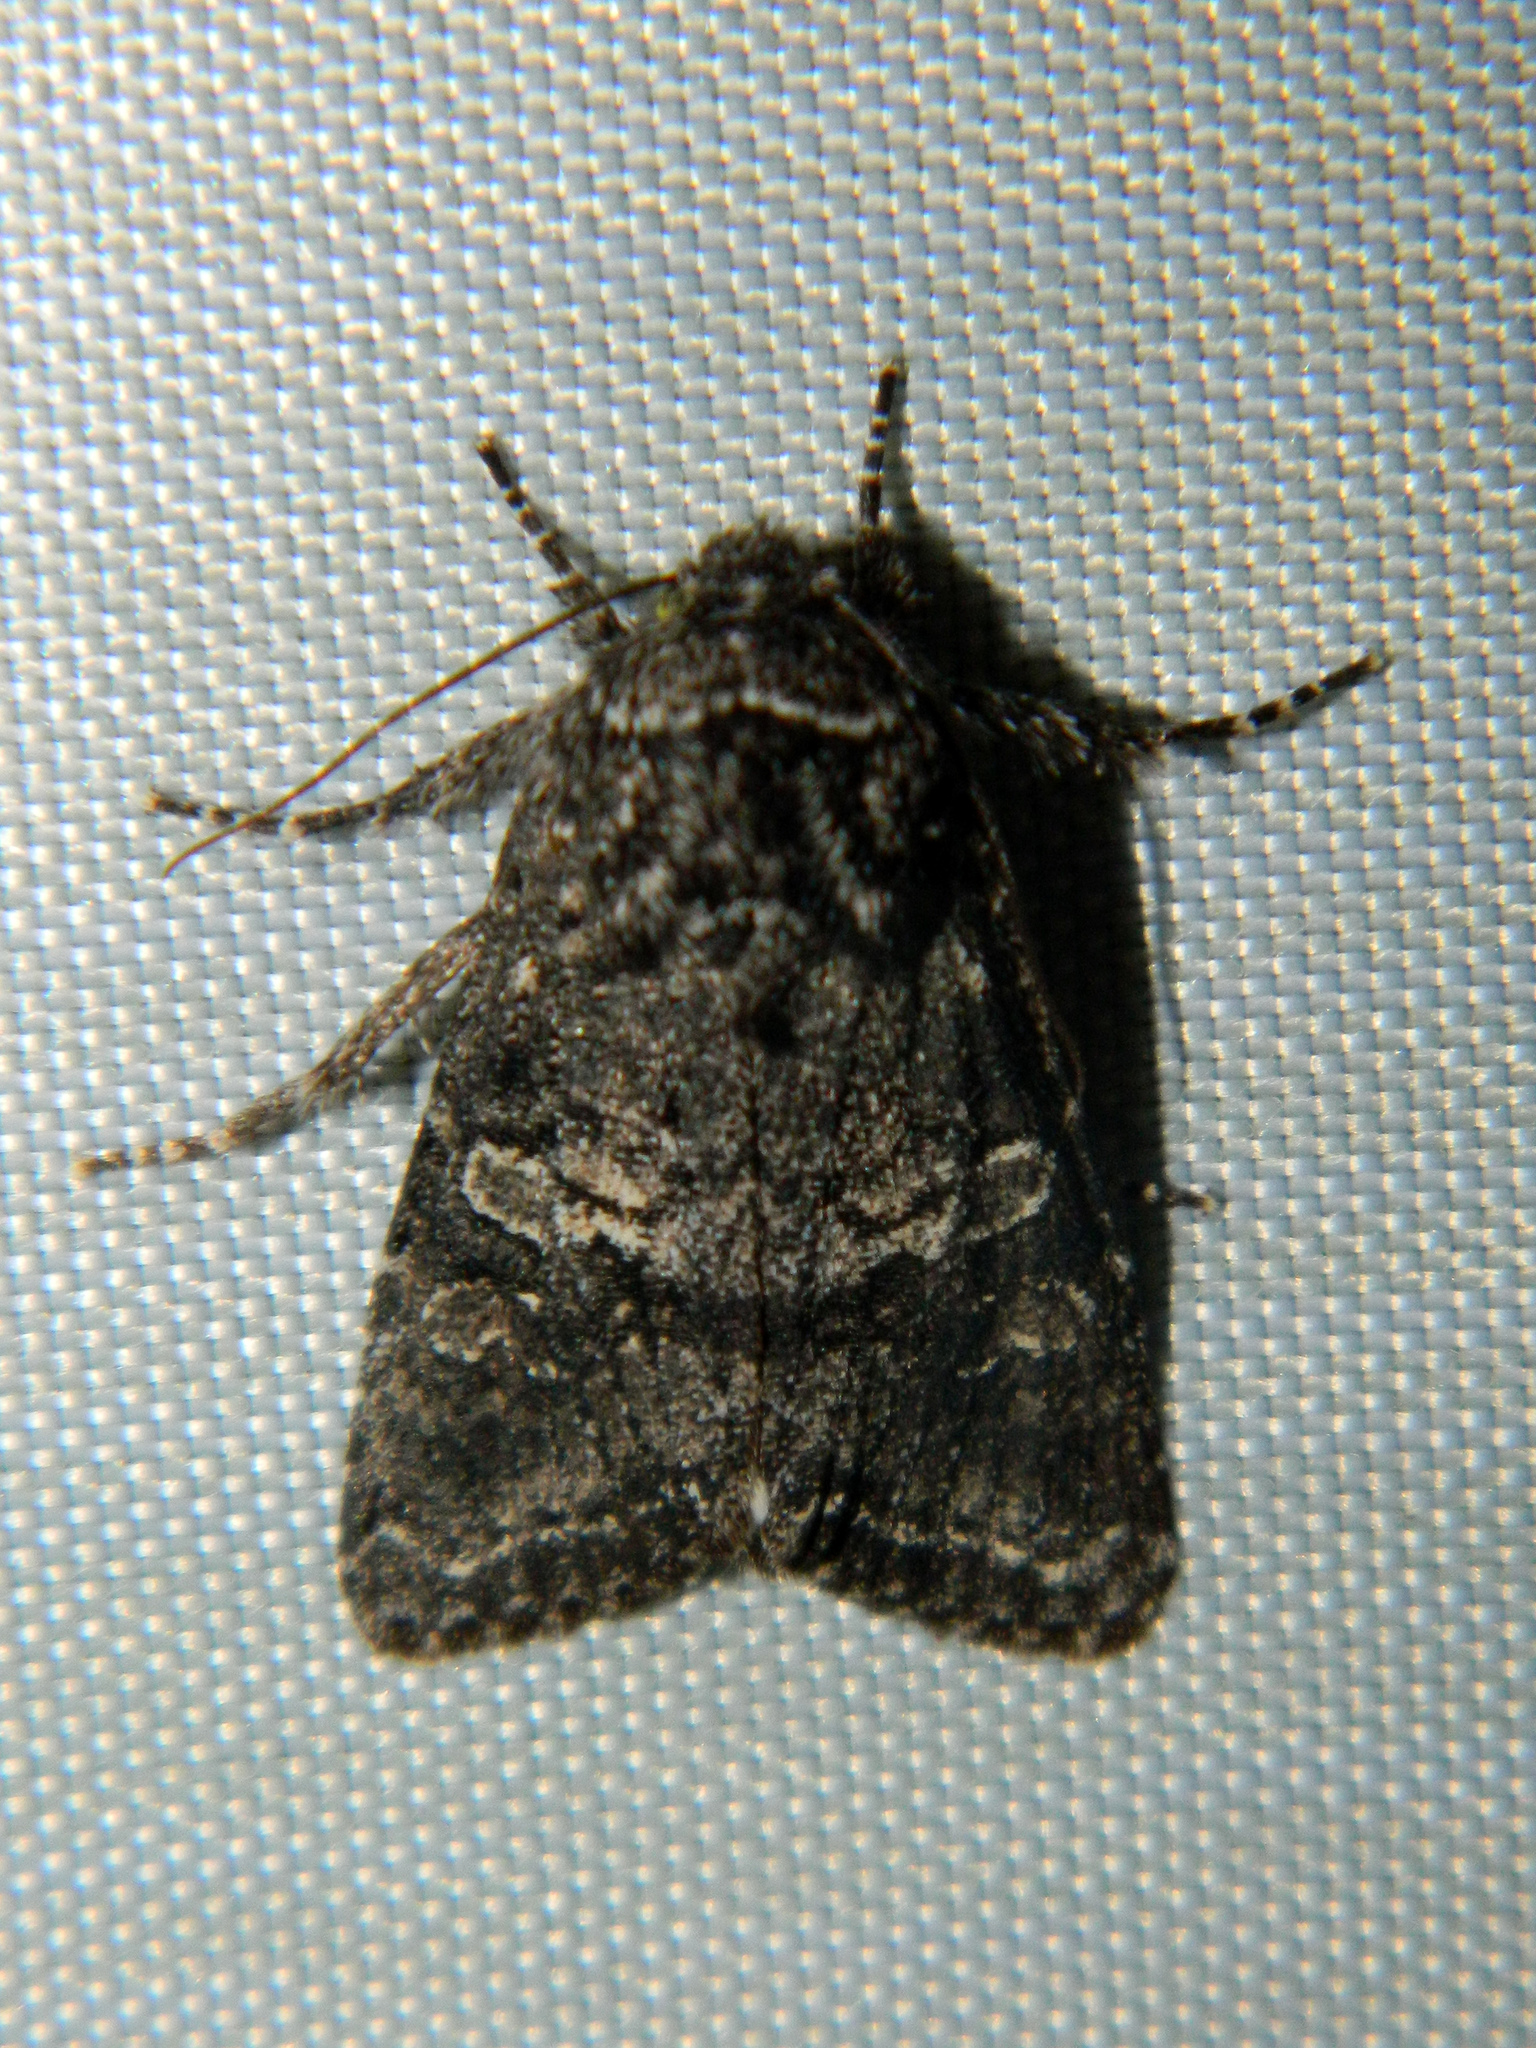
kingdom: Animalia
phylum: Arthropoda
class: Insecta
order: Lepidoptera
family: Noctuidae
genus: Egira
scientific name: Egira dolosa
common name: Lined black aspen cat.
